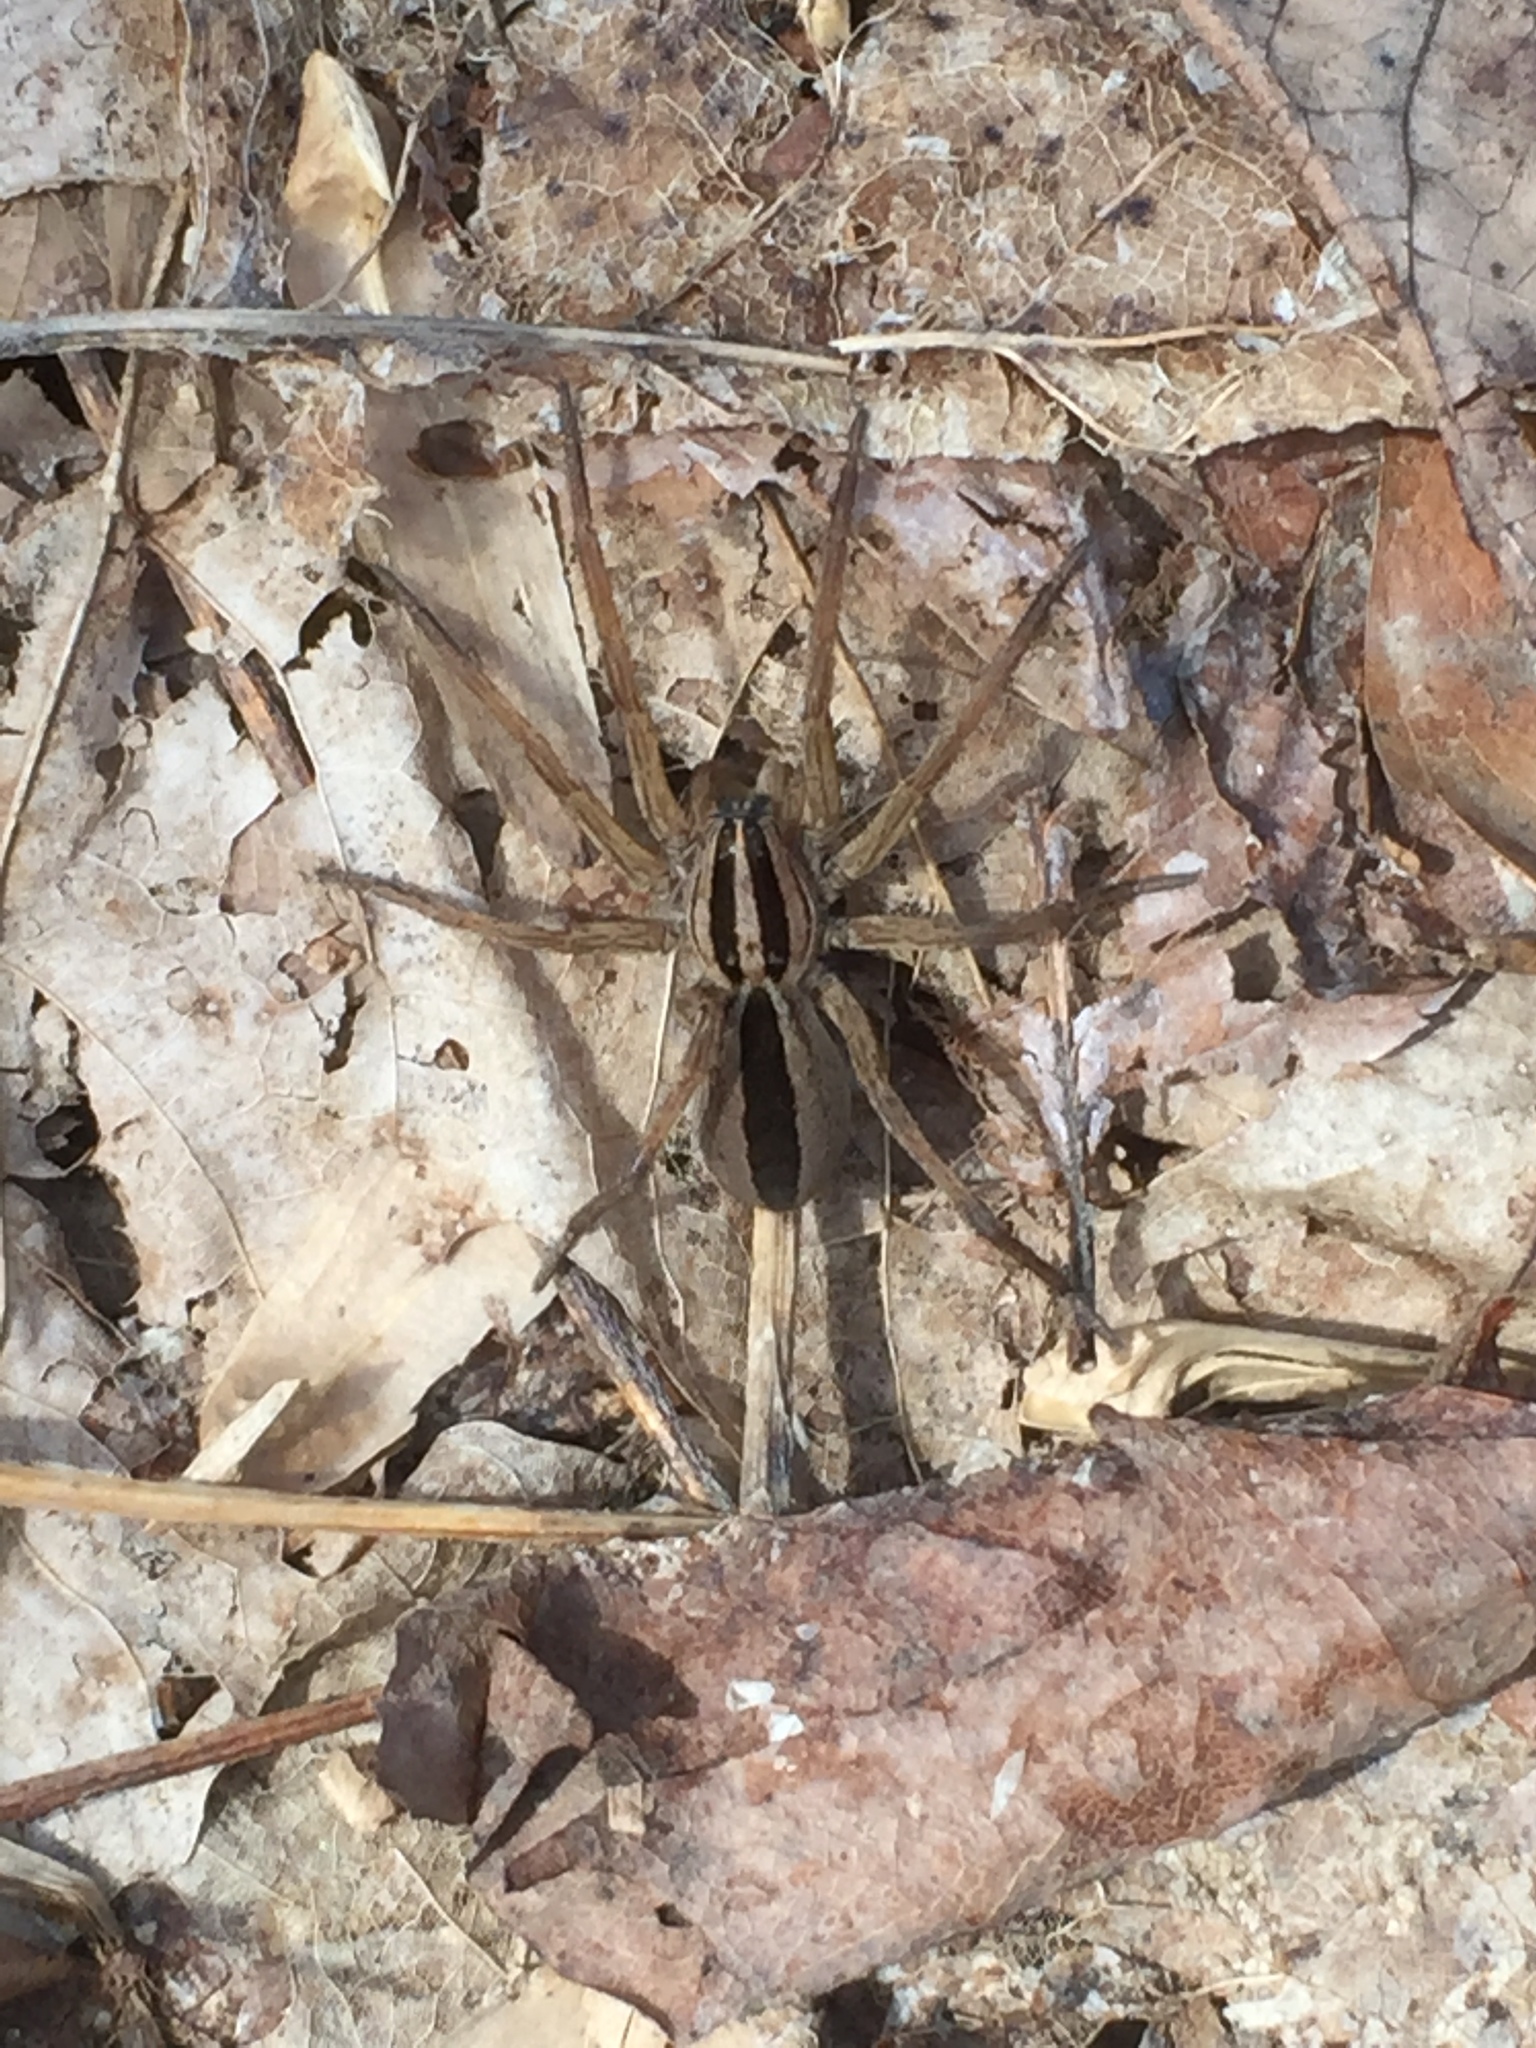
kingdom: Animalia
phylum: Arthropoda
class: Arachnida
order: Araneae
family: Lycosidae
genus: Rabidosa
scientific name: Rabidosa punctulata
